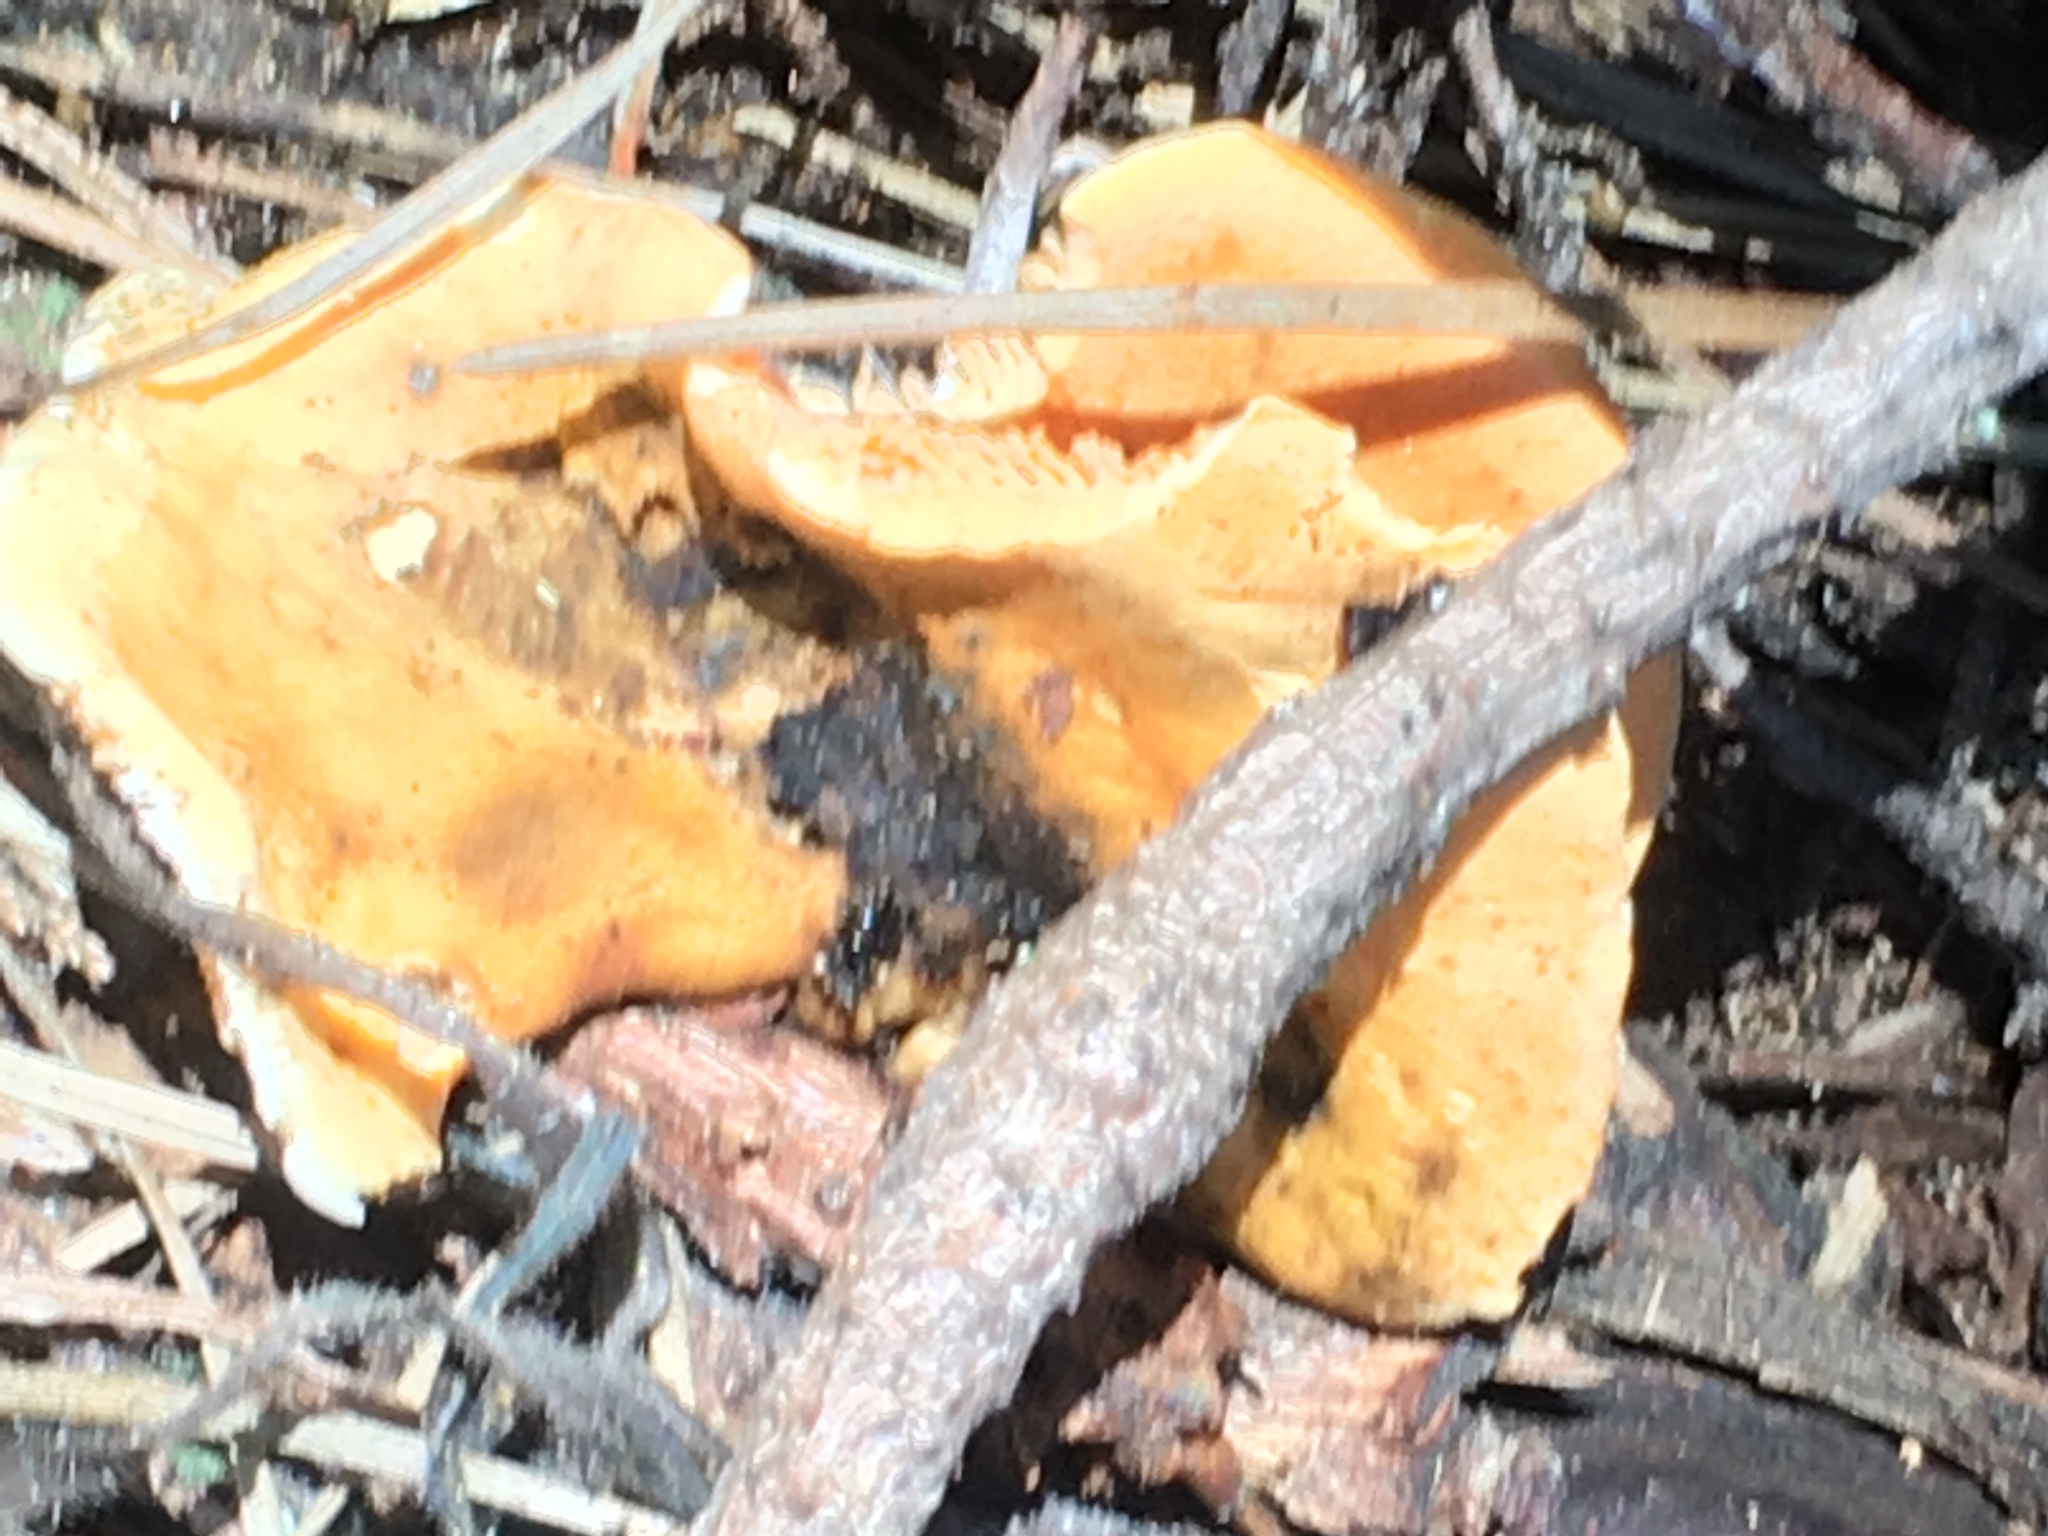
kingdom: Fungi
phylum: Basidiomycota
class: Agaricomycetes
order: Boletales
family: Hygrophoropsidaceae
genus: Hygrophoropsis
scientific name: Hygrophoropsis aurantiaca
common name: False chanterelle
